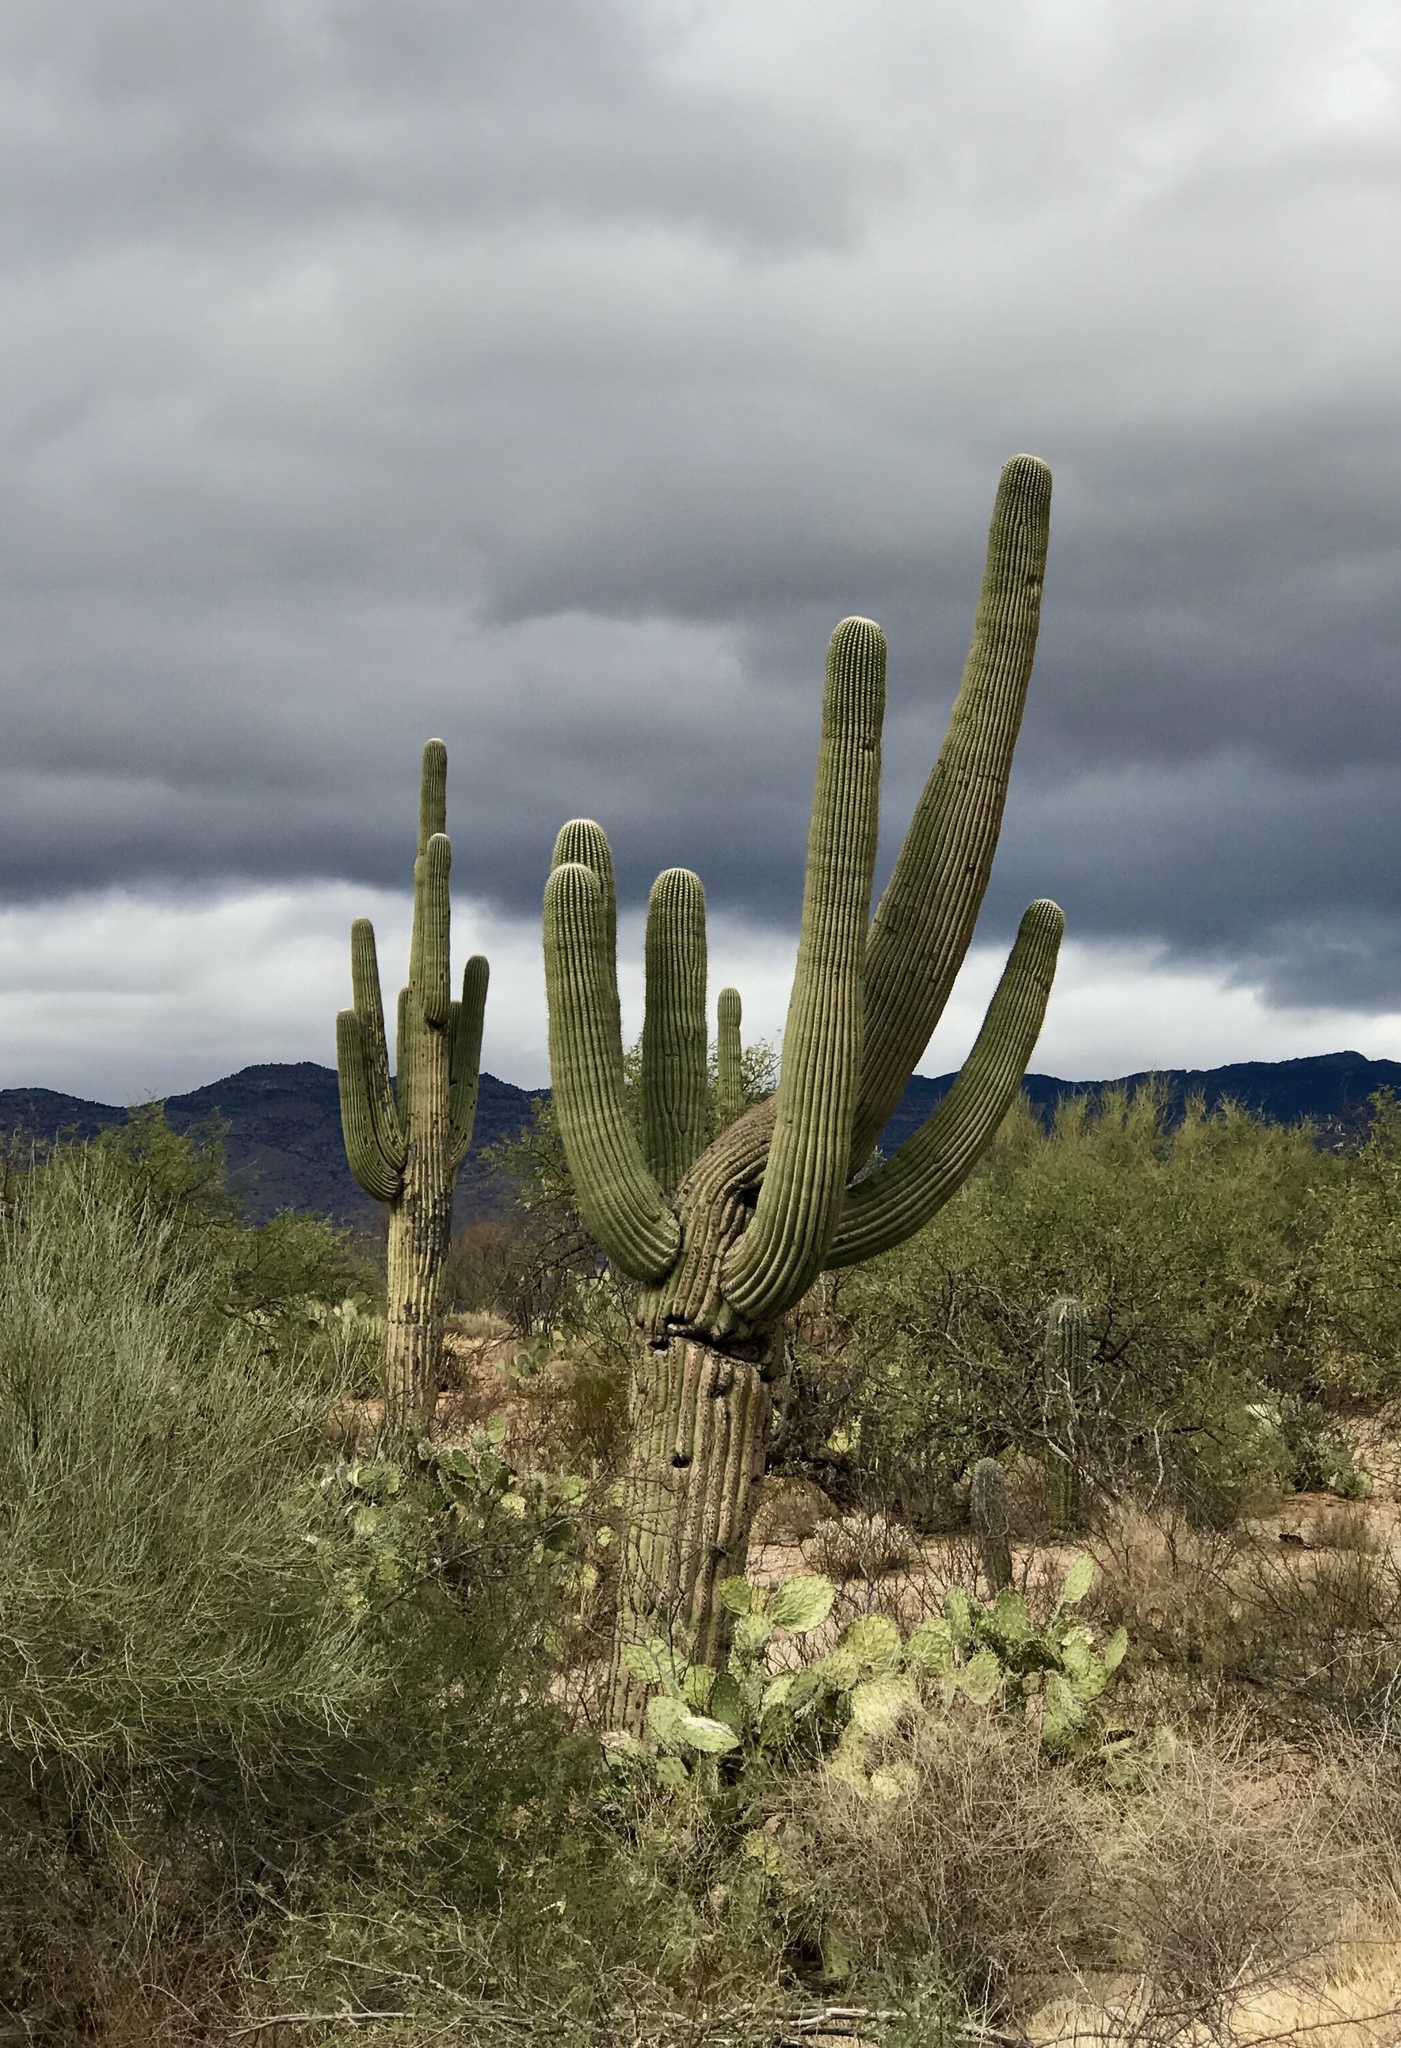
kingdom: Plantae
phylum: Tracheophyta
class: Magnoliopsida
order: Caryophyllales
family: Cactaceae
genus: Carnegiea
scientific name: Carnegiea gigantea
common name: Saguaro
